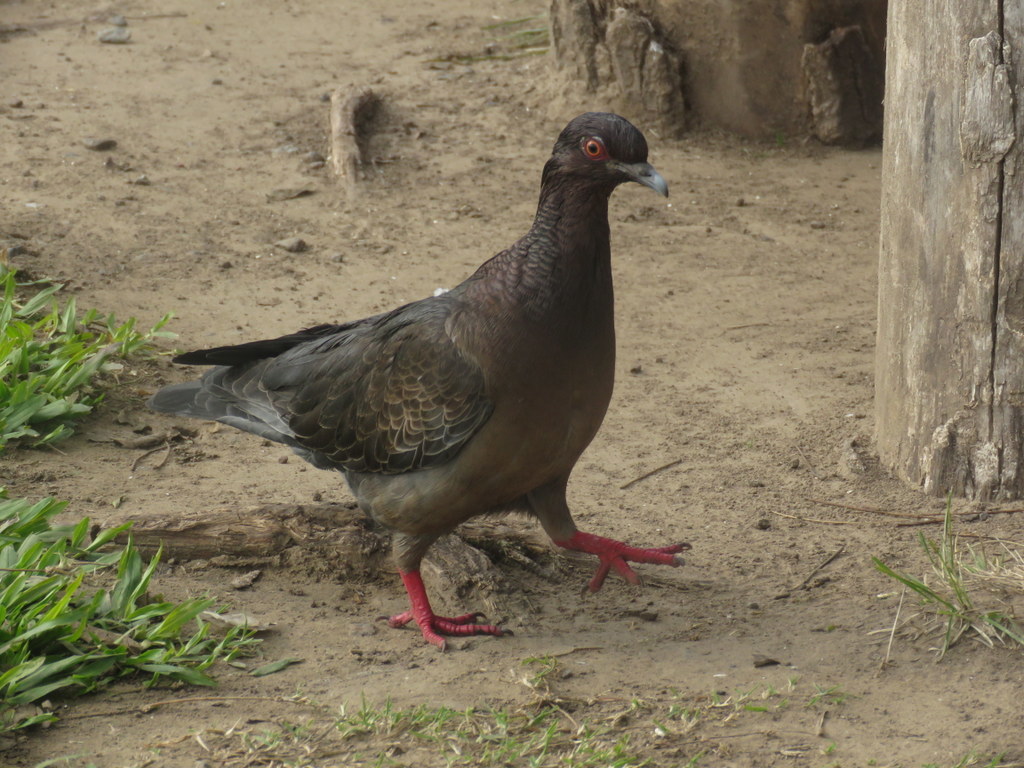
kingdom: Animalia
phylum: Chordata
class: Aves
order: Columbiformes
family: Columbidae
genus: Patagioenas
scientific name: Patagioenas picazuro
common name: Picazuro pigeon
